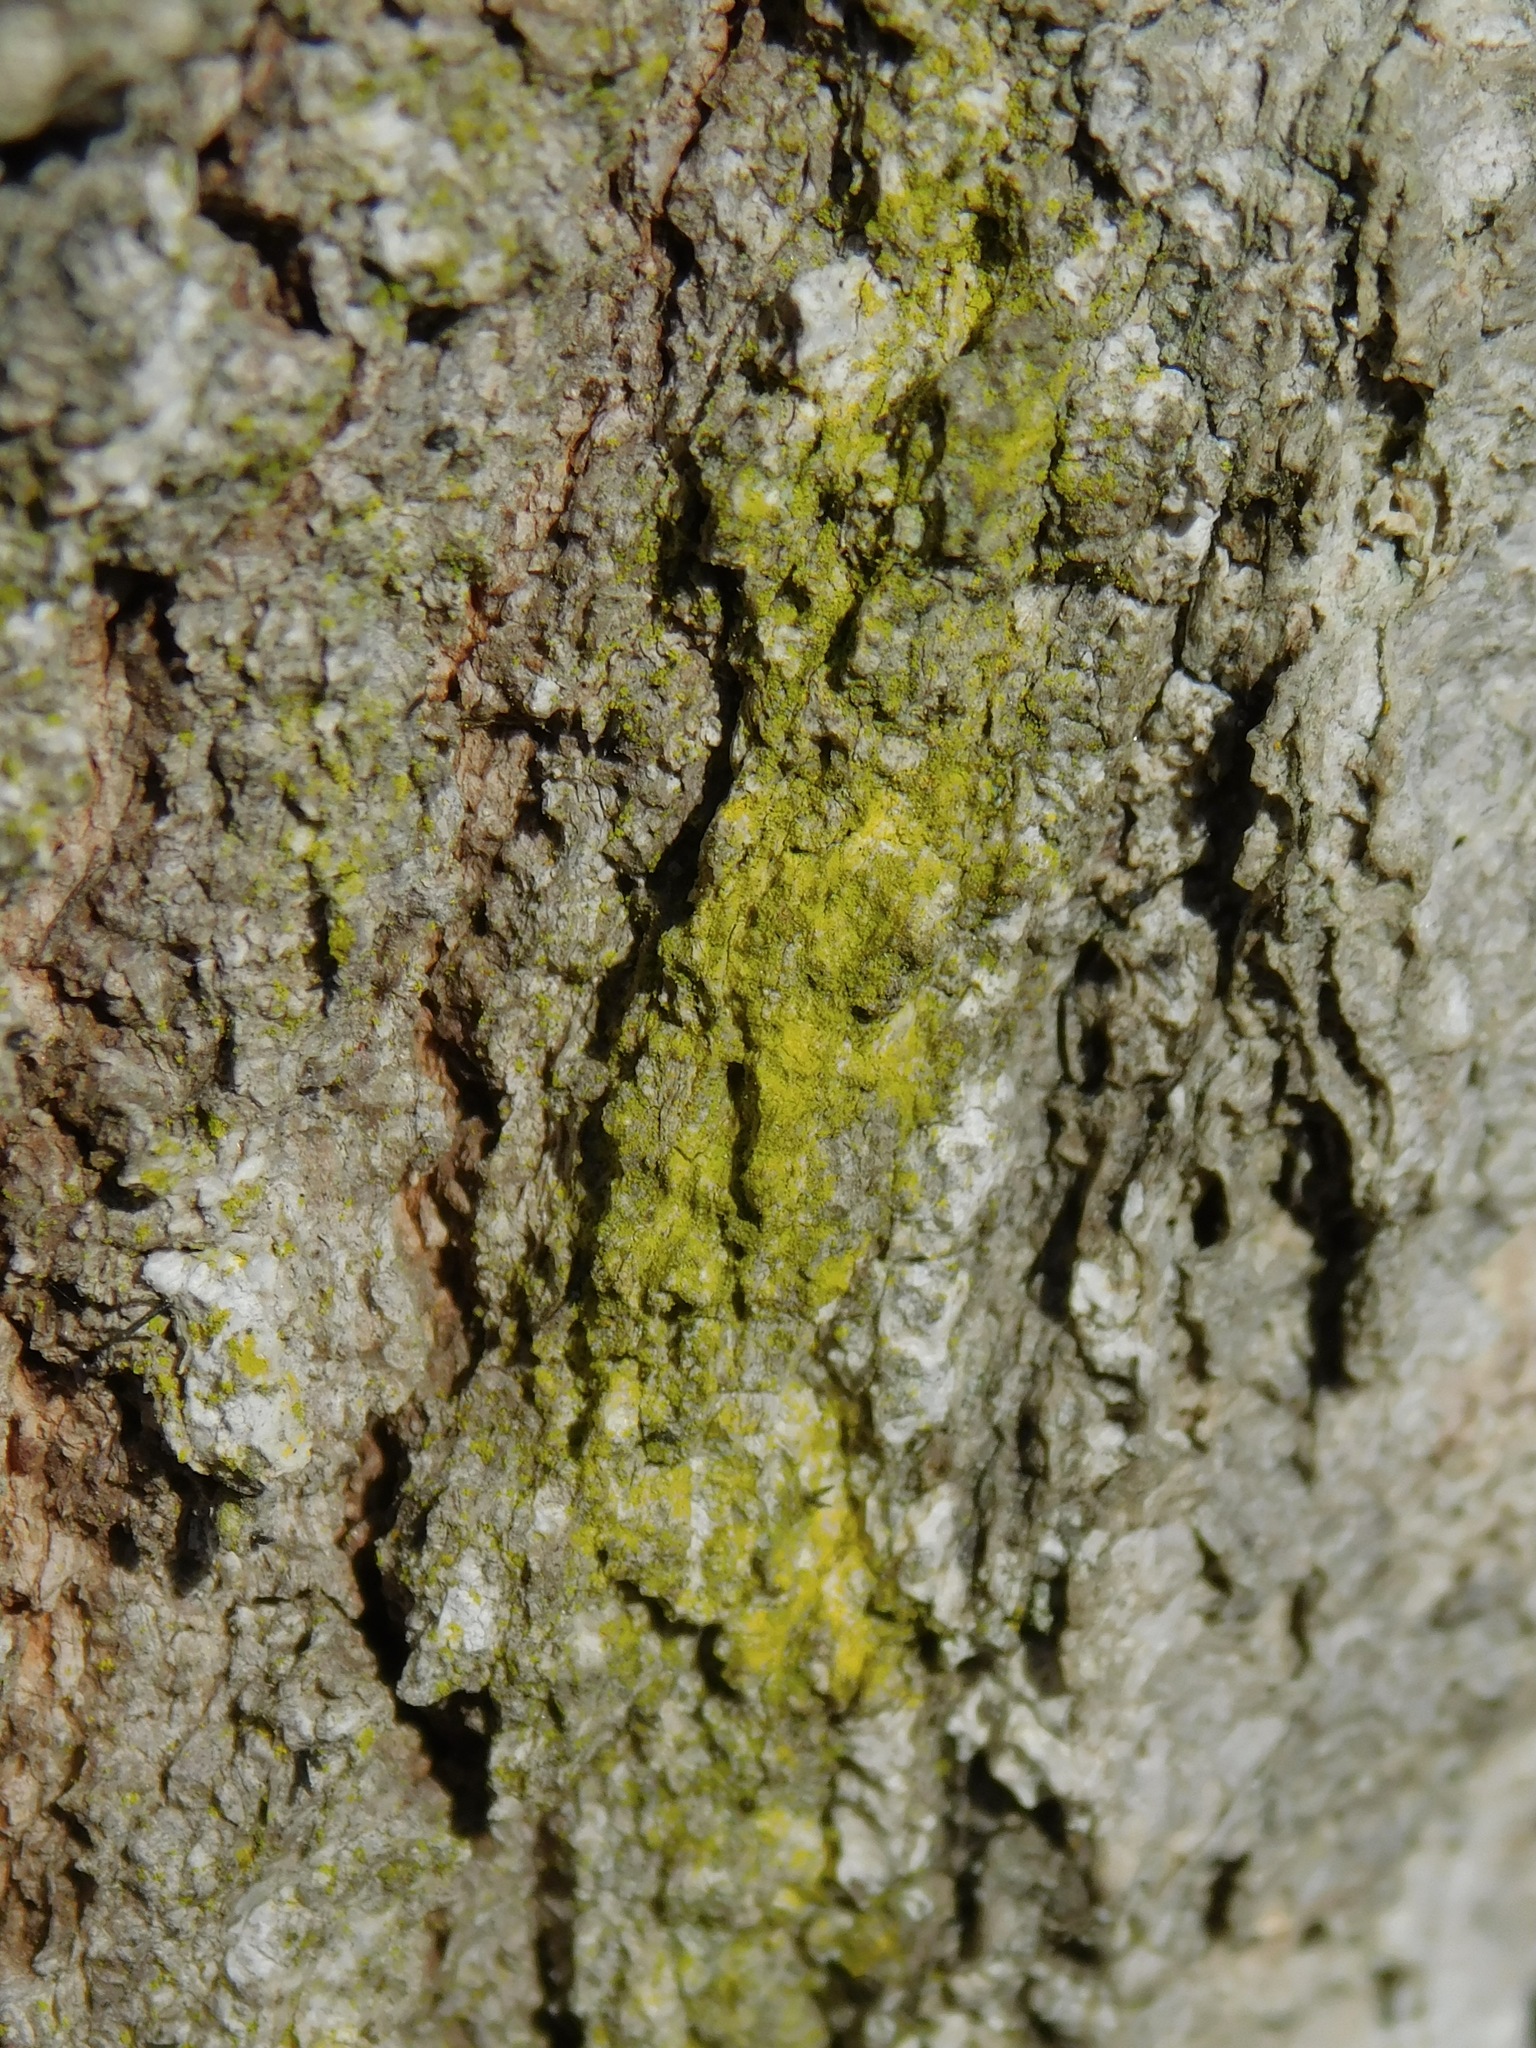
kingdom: Fungi
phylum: Ascomycota
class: Arthoniomycetes
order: Arthoniales
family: Chrysotrichaceae
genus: Chrysothrix
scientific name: Chrysothrix xanthina
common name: Common gold-dust
